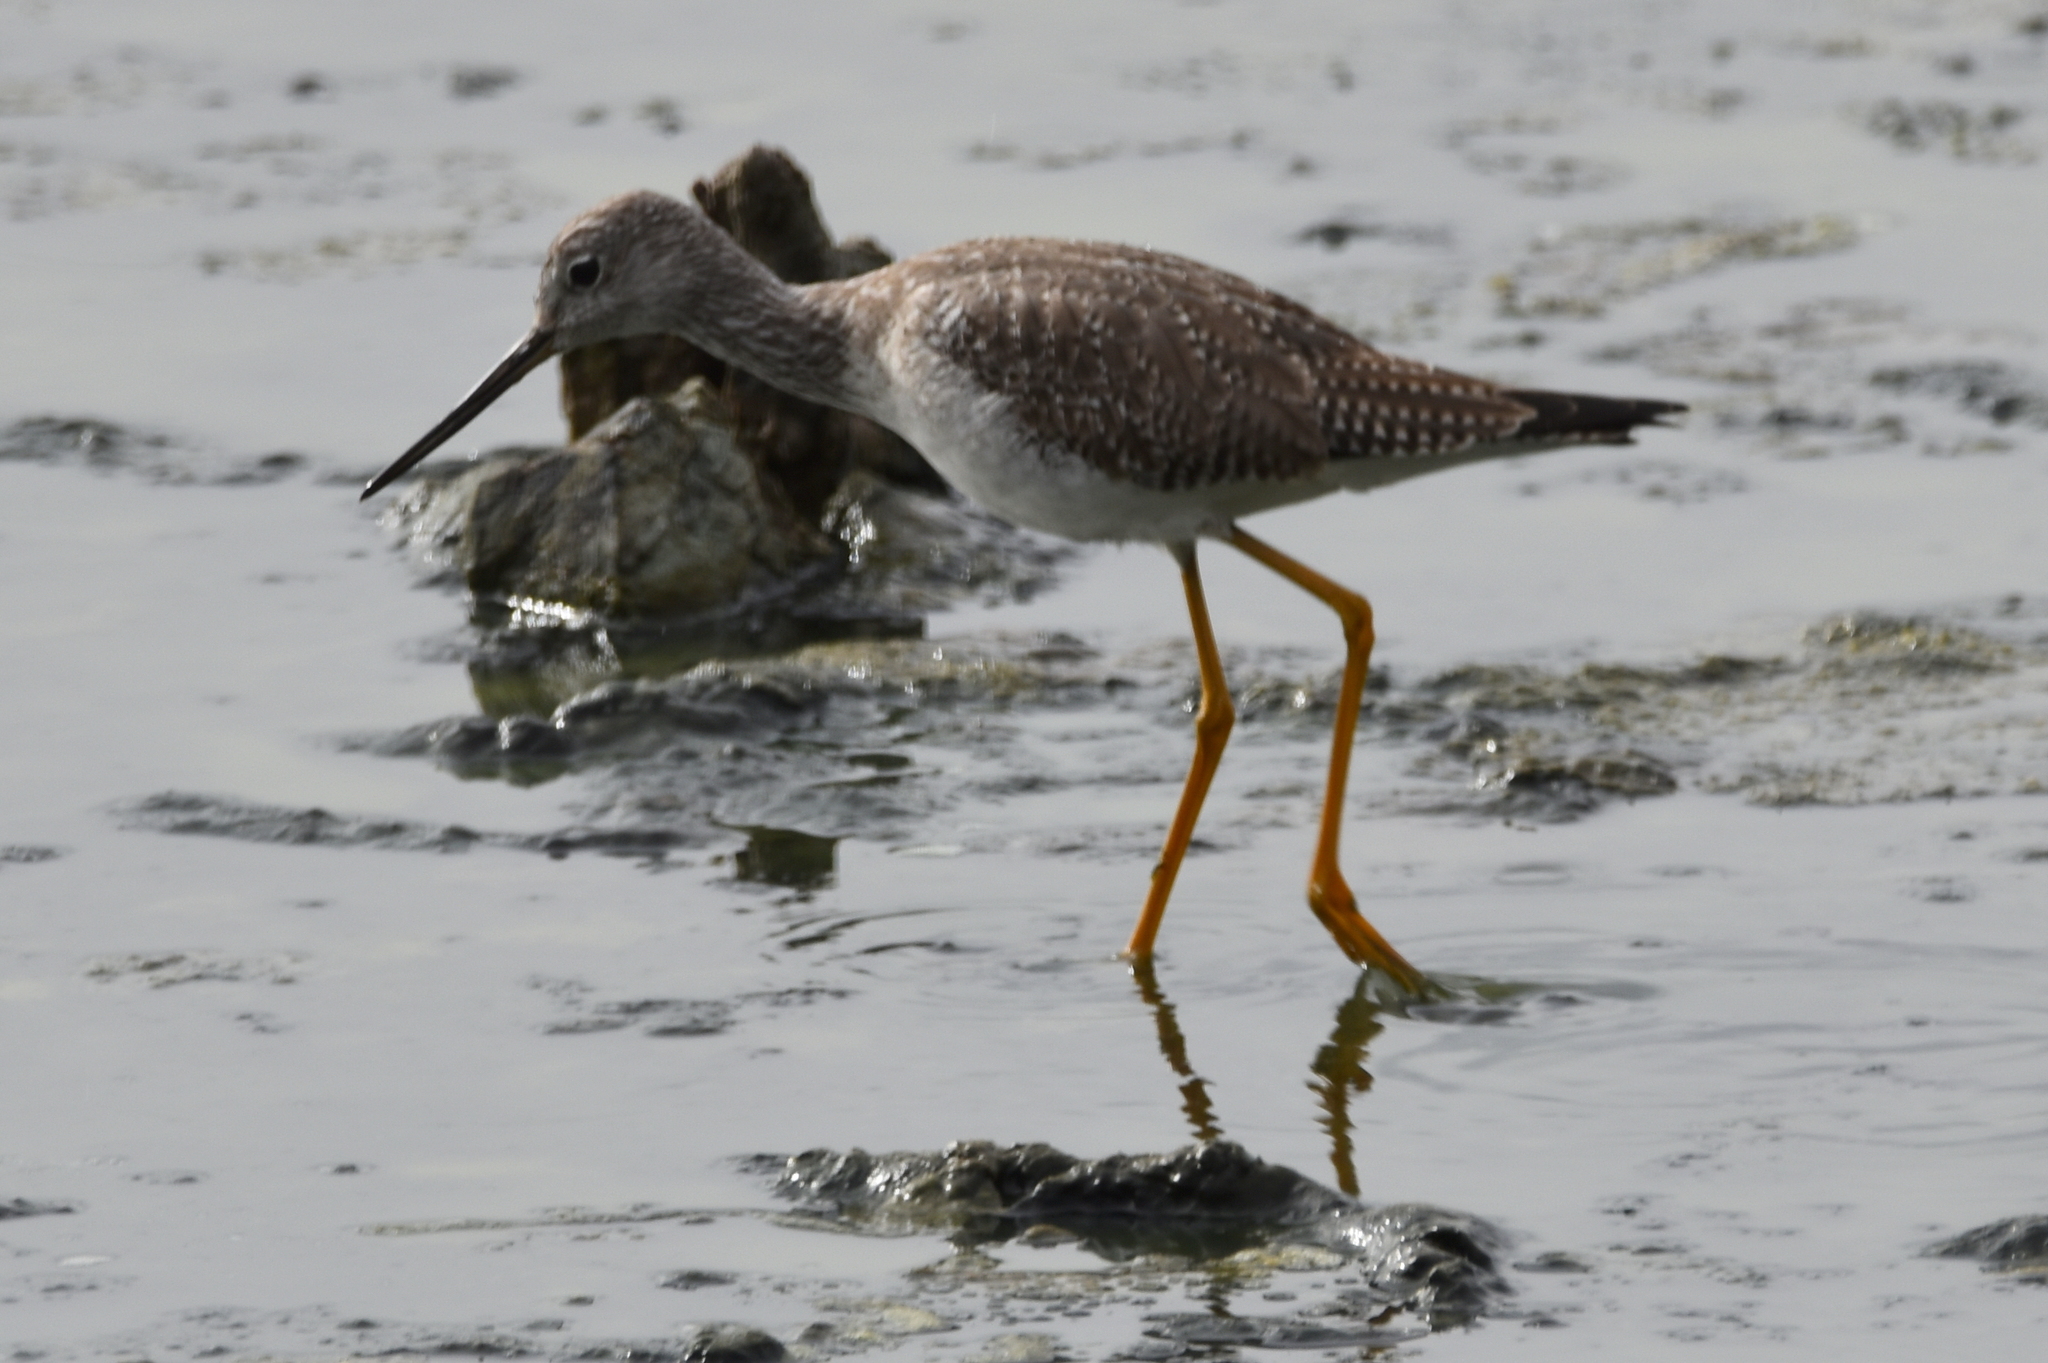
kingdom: Animalia
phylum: Chordata
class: Aves
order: Charadriiformes
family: Scolopacidae
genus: Tringa
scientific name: Tringa melanoleuca
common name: Greater yellowlegs
